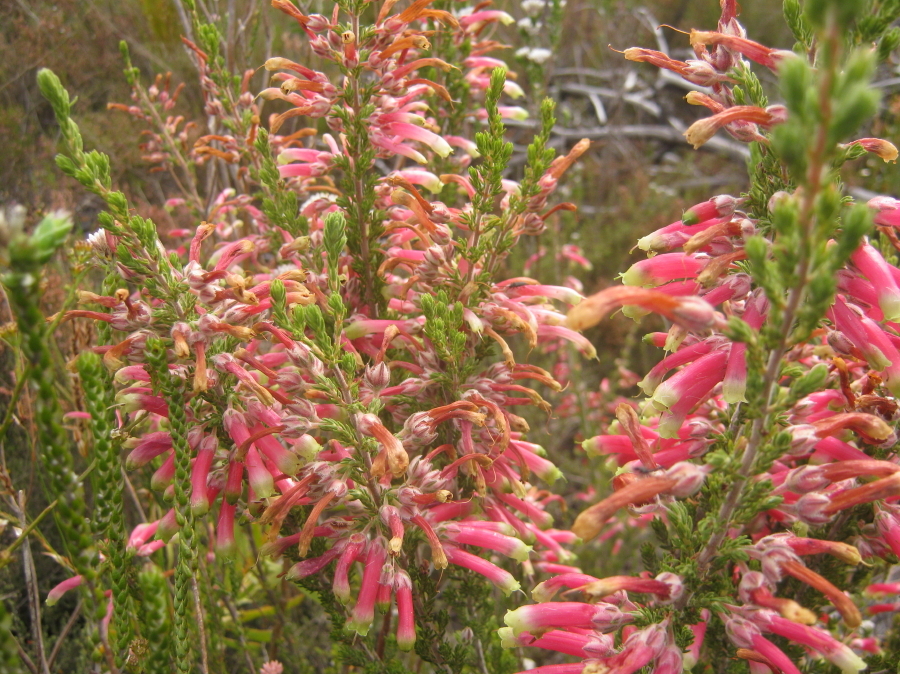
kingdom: Plantae
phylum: Tracheophyta
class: Magnoliopsida
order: Ericales
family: Ericaceae
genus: Erica
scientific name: Erica discolor
